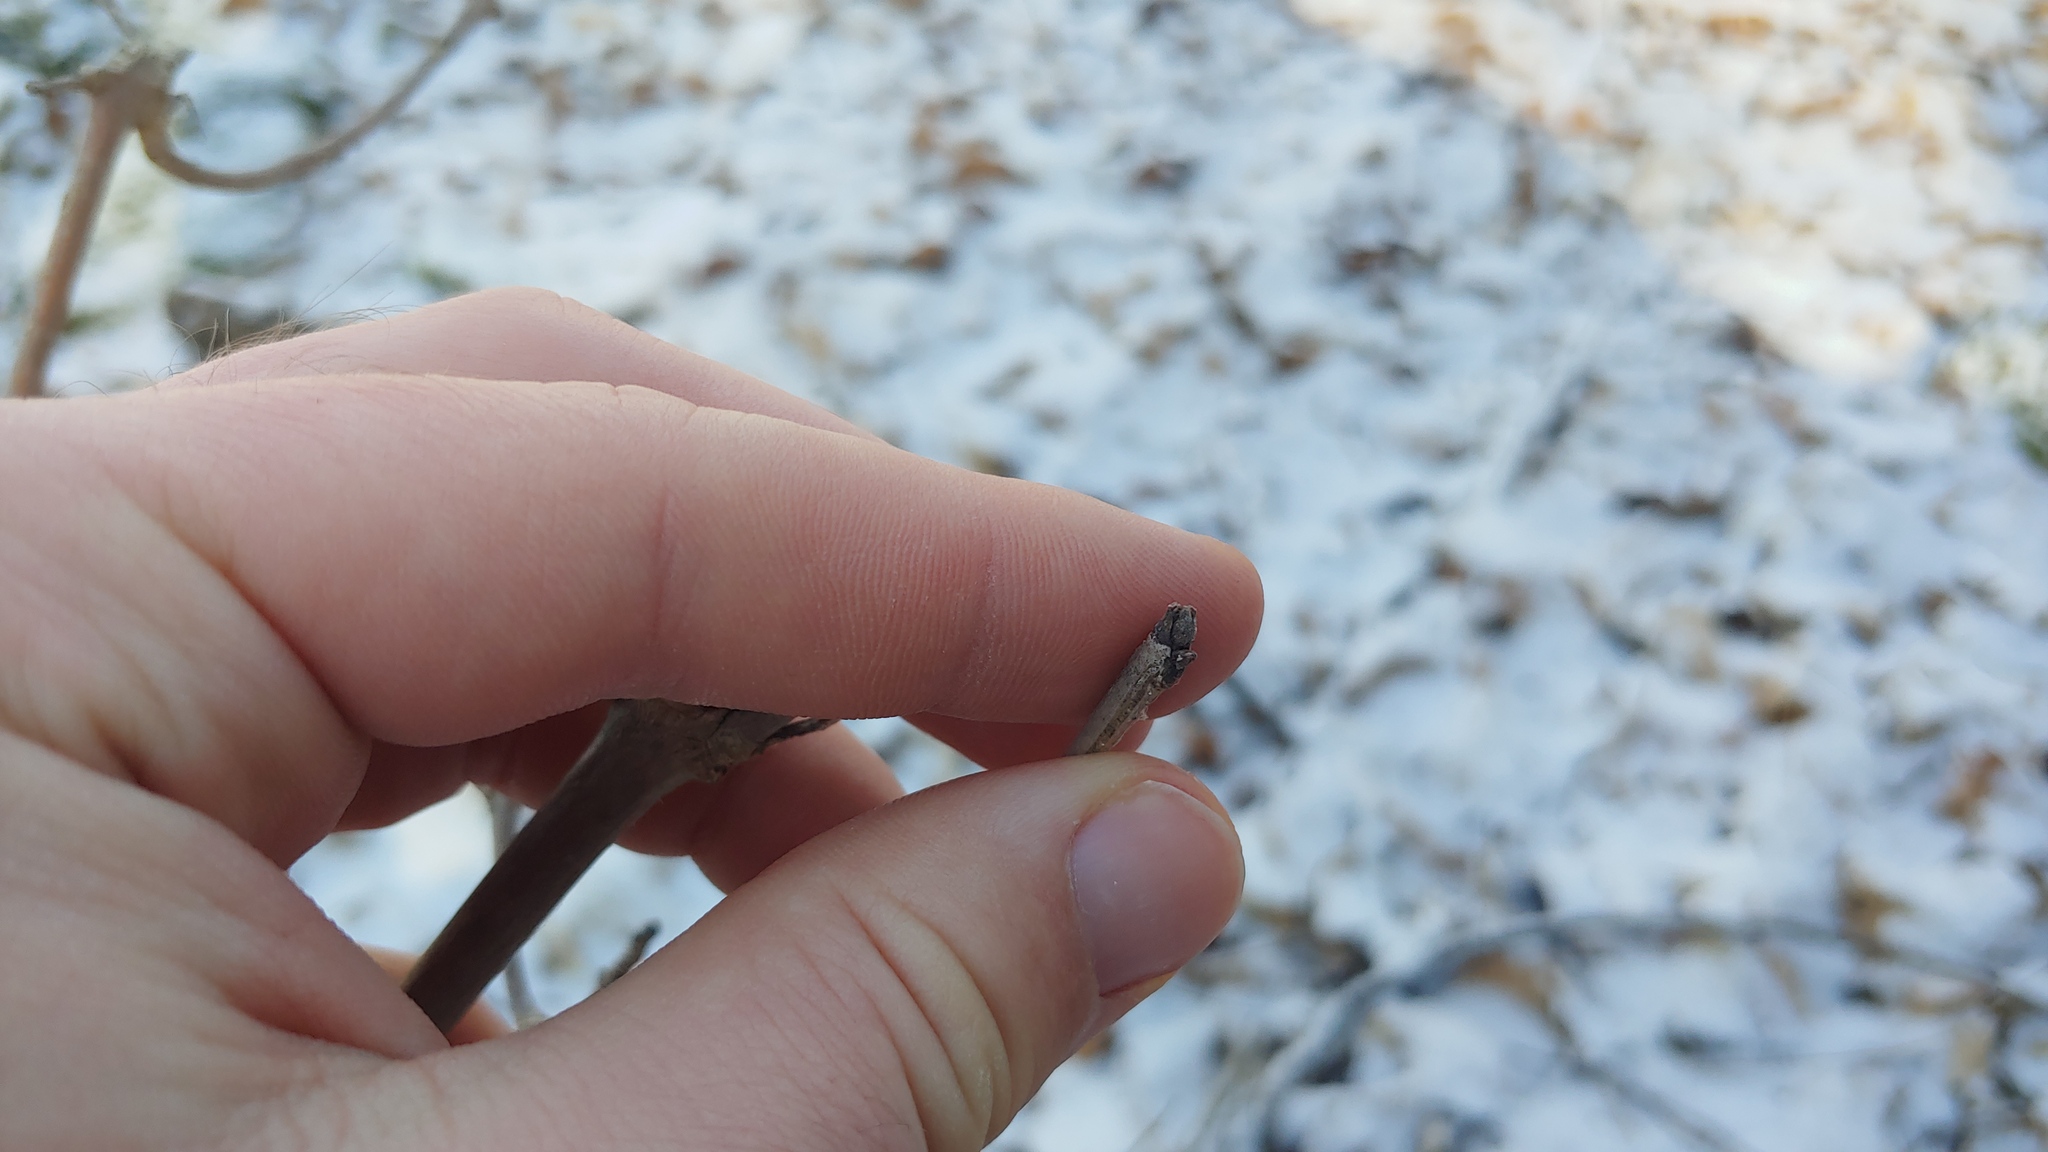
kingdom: Plantae
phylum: Tracheophyta
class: Magnoliopsida
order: Lamiales
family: Oleaceae
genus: Fraxinus
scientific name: Fraxinus nigra
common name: Black ash
